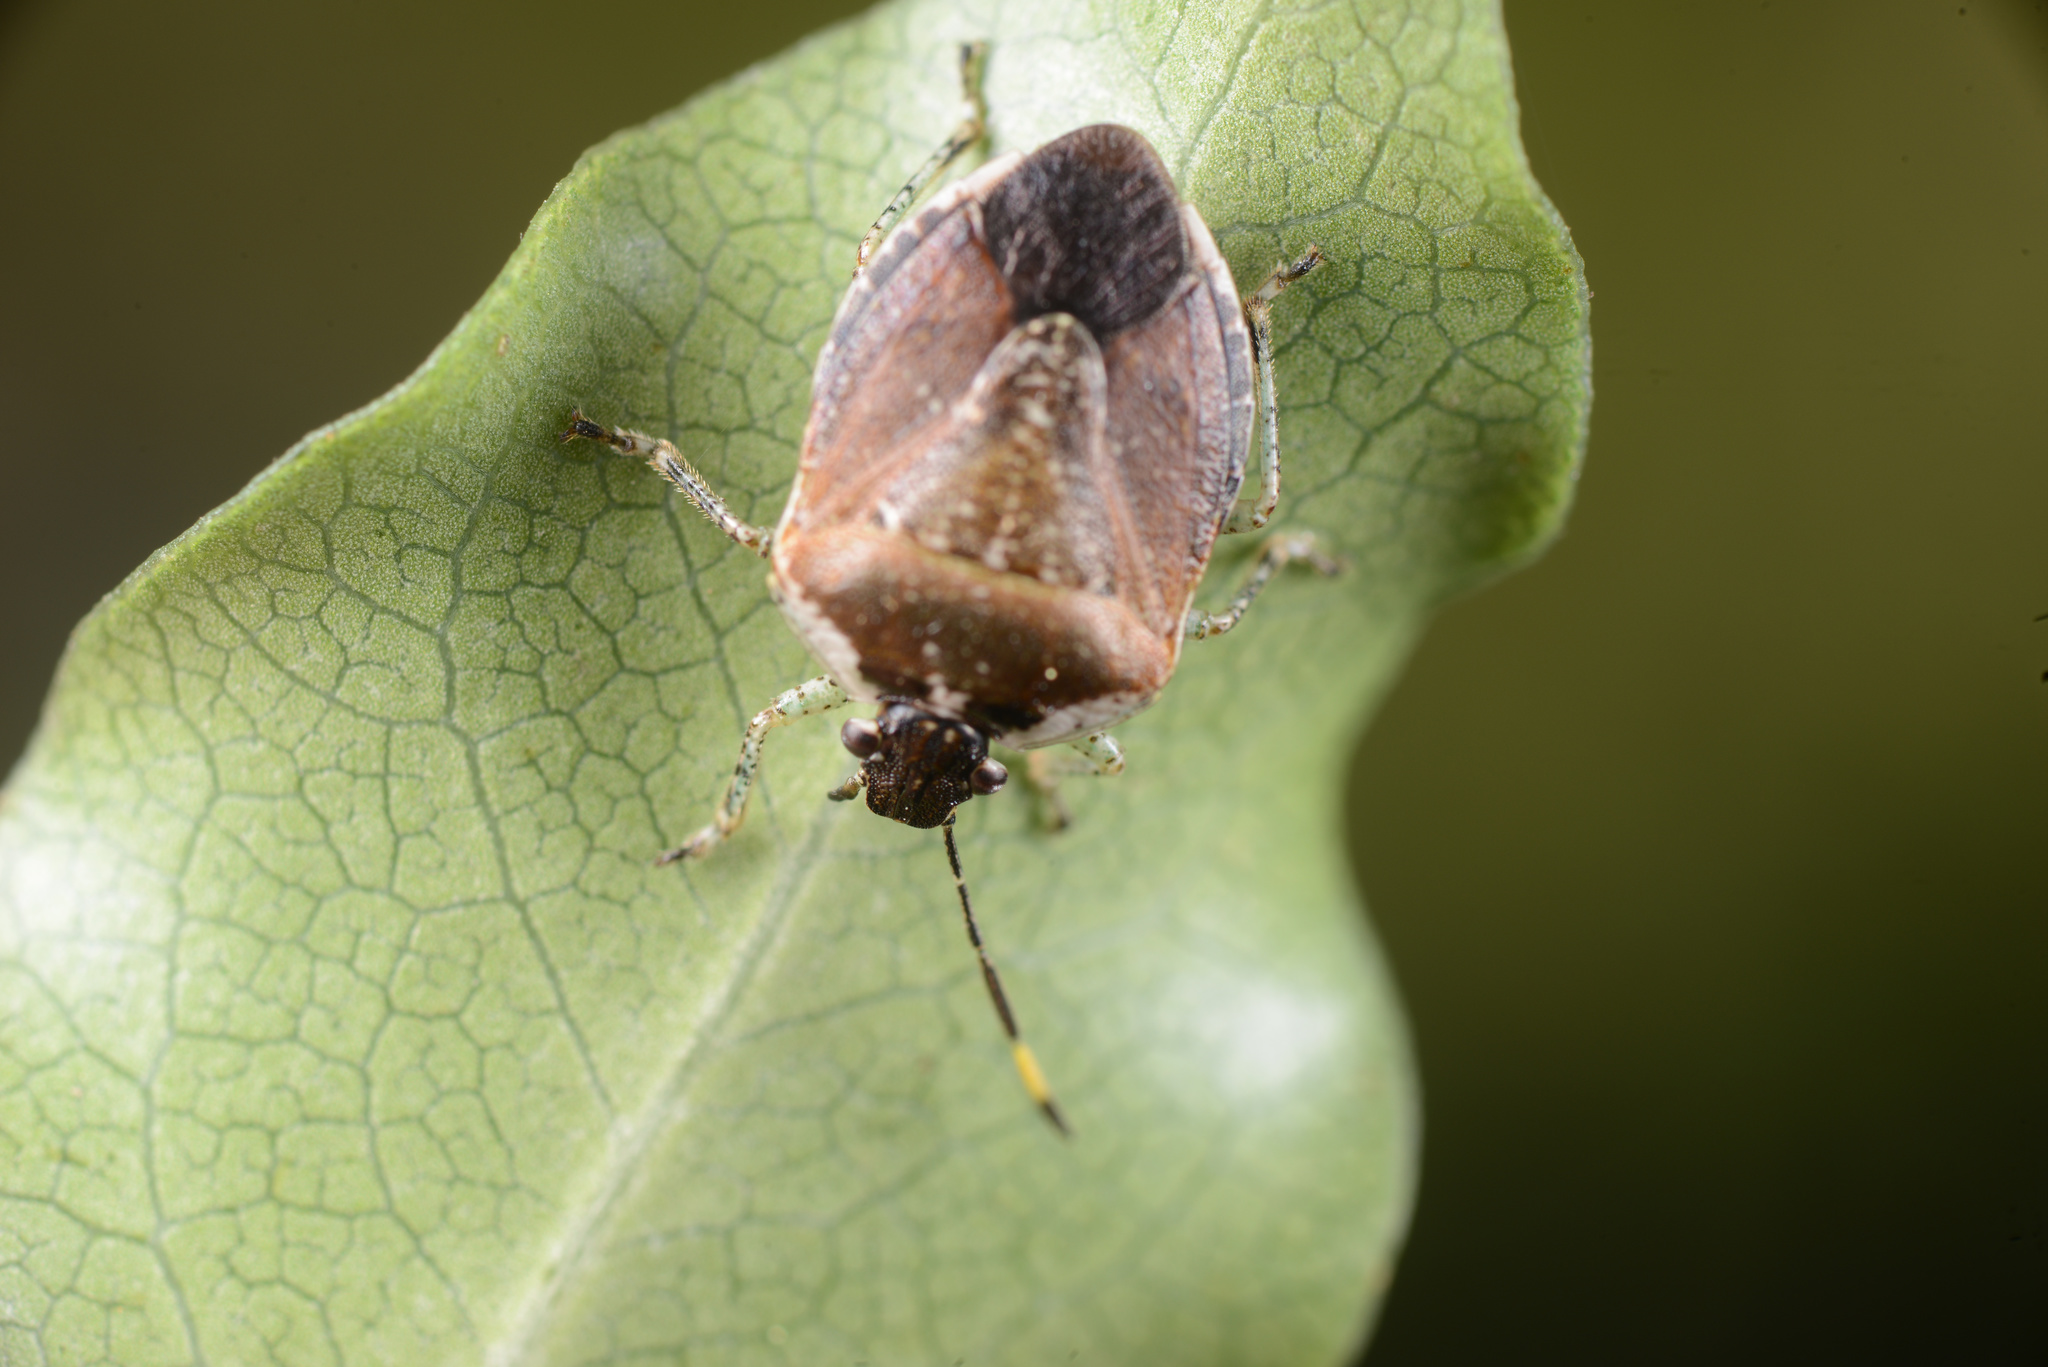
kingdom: Animalia
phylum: Arthropoda
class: Insecta
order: Hemiptera
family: Pentatomidae
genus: Monteithiella
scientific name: Monteithiella
